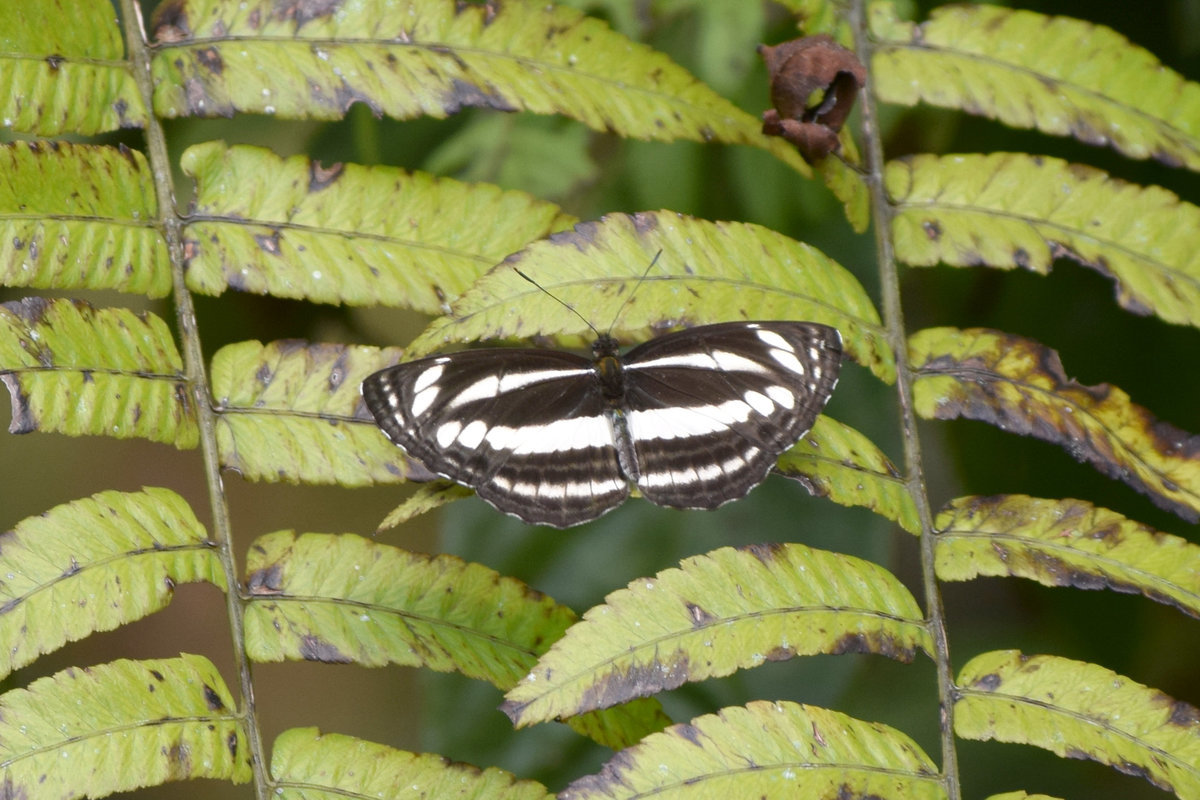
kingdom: Animalia
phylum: Arthropoda
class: Insecta
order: Lepidoptera
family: Nymphalidae
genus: Neptis
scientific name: Neptis clinia
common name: Southern sullied sailer
